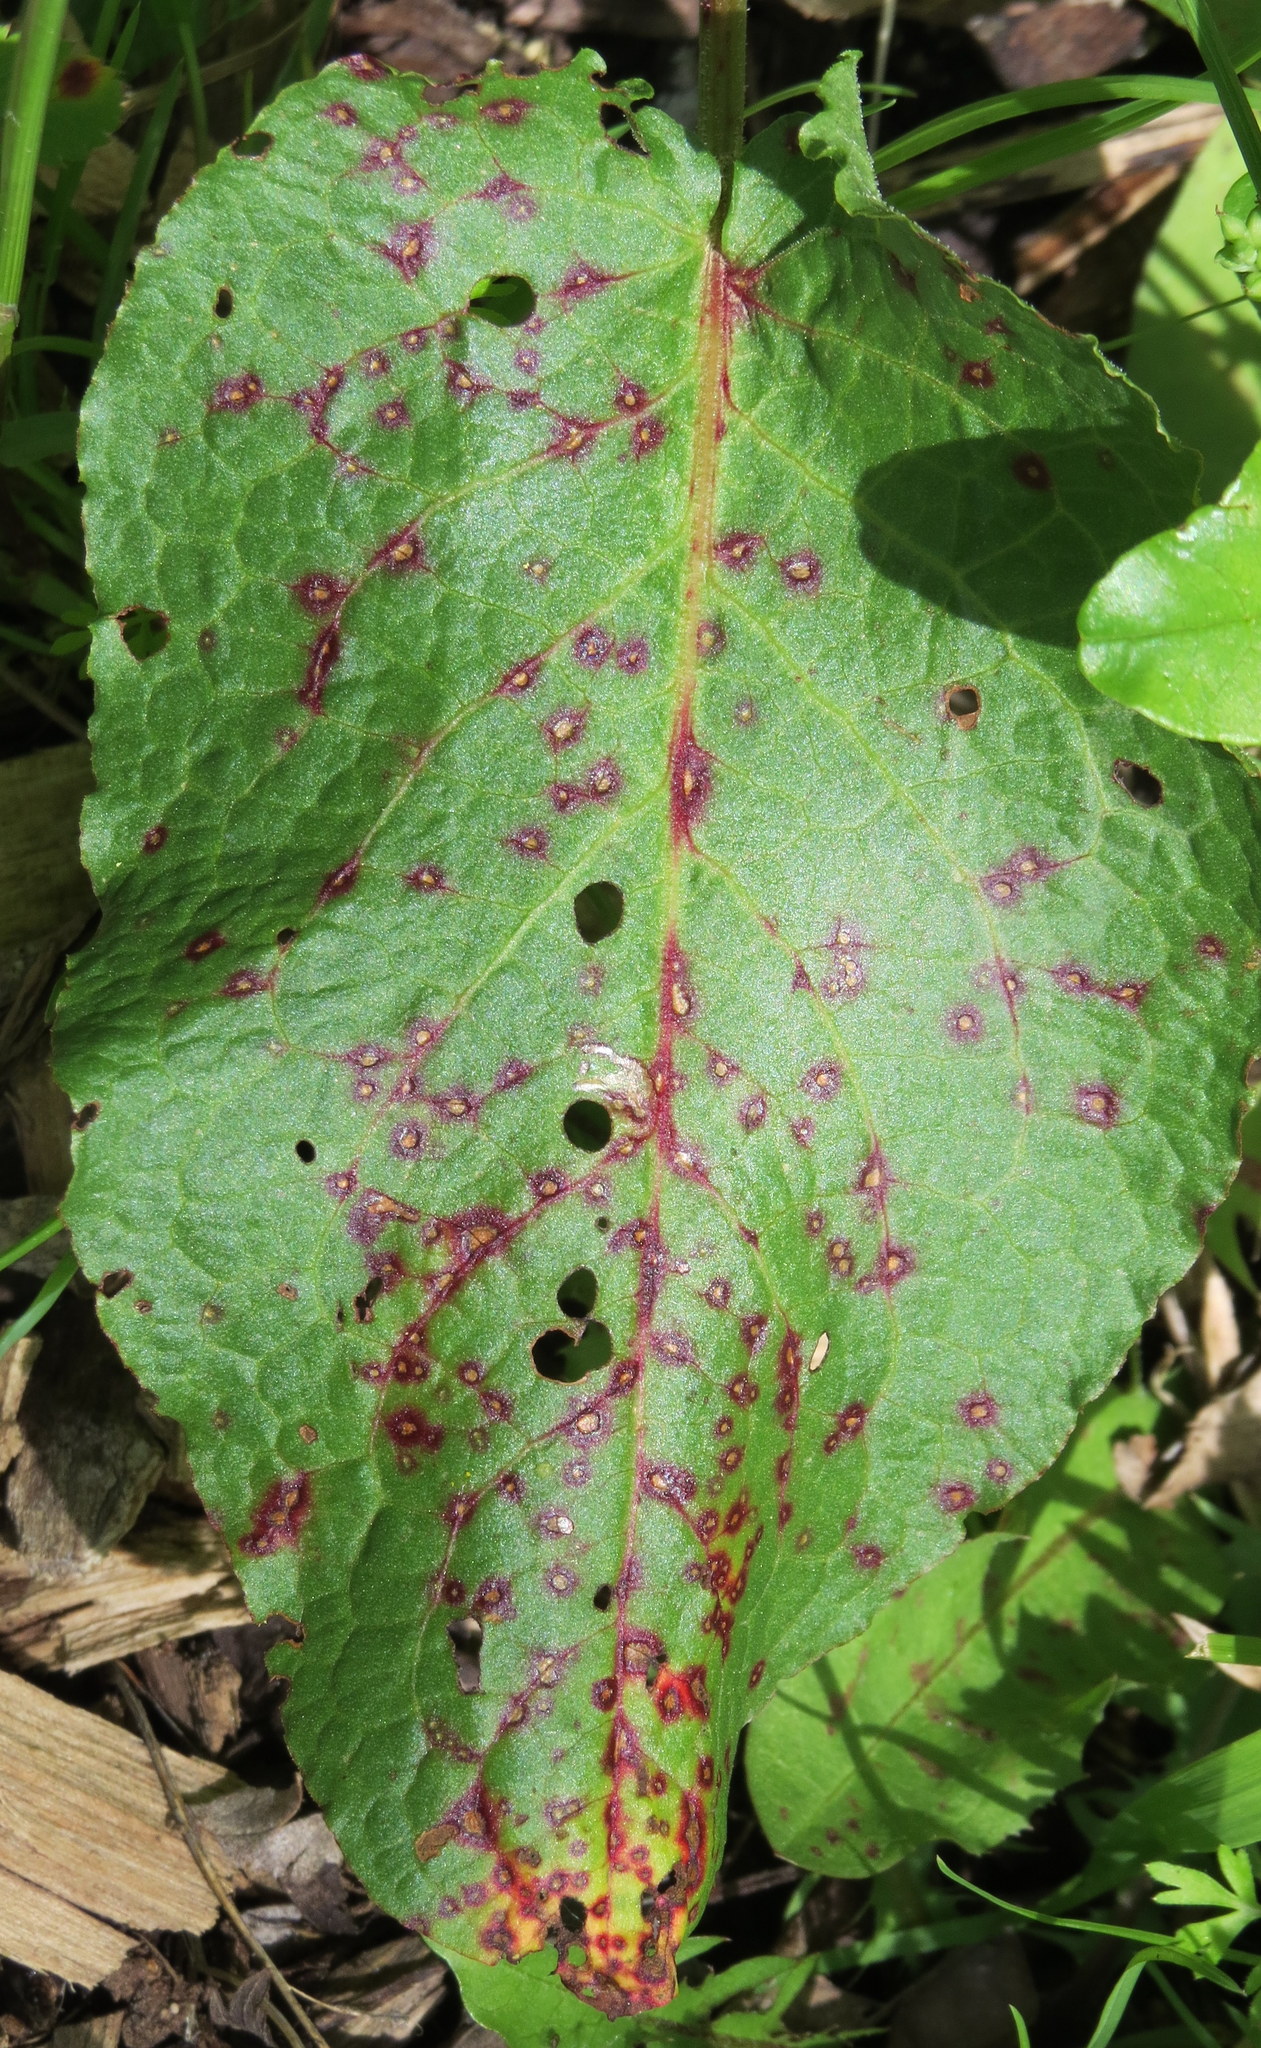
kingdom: Fungi
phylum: Ascomycota
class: Dothideomycetes
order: Mycosphaerellales
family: Mycosphaerellaceae
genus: Ramularia
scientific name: Ramularia rubella
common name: Red dock spot
